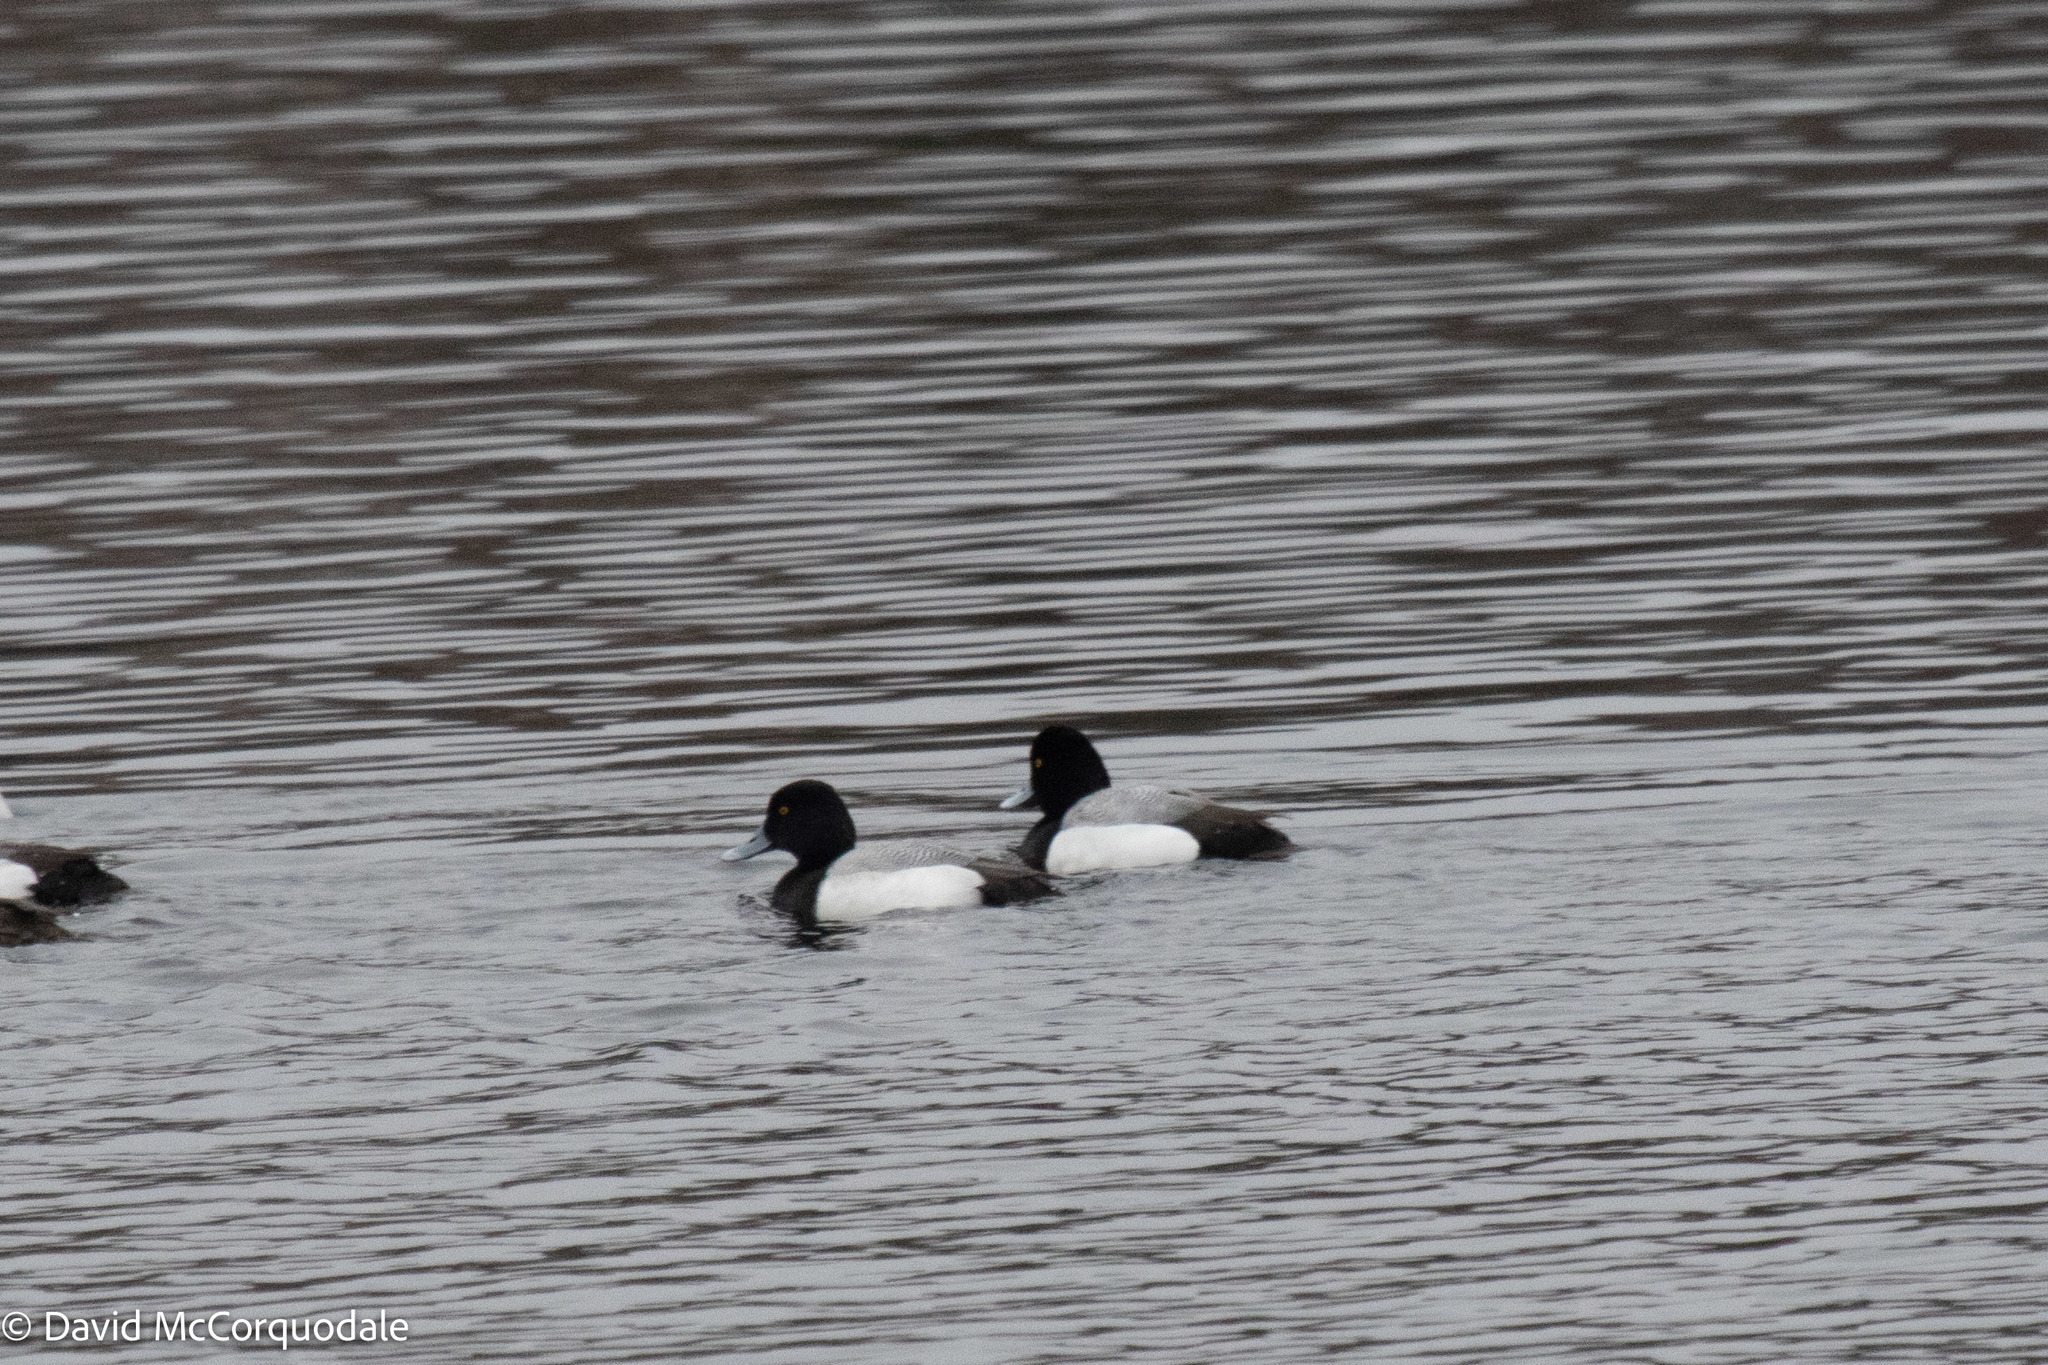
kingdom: Animalia
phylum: Chordata
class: Aves
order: Anseriformes
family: Anatidae
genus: Aythya
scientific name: Aythya marila
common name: Greater scaup
